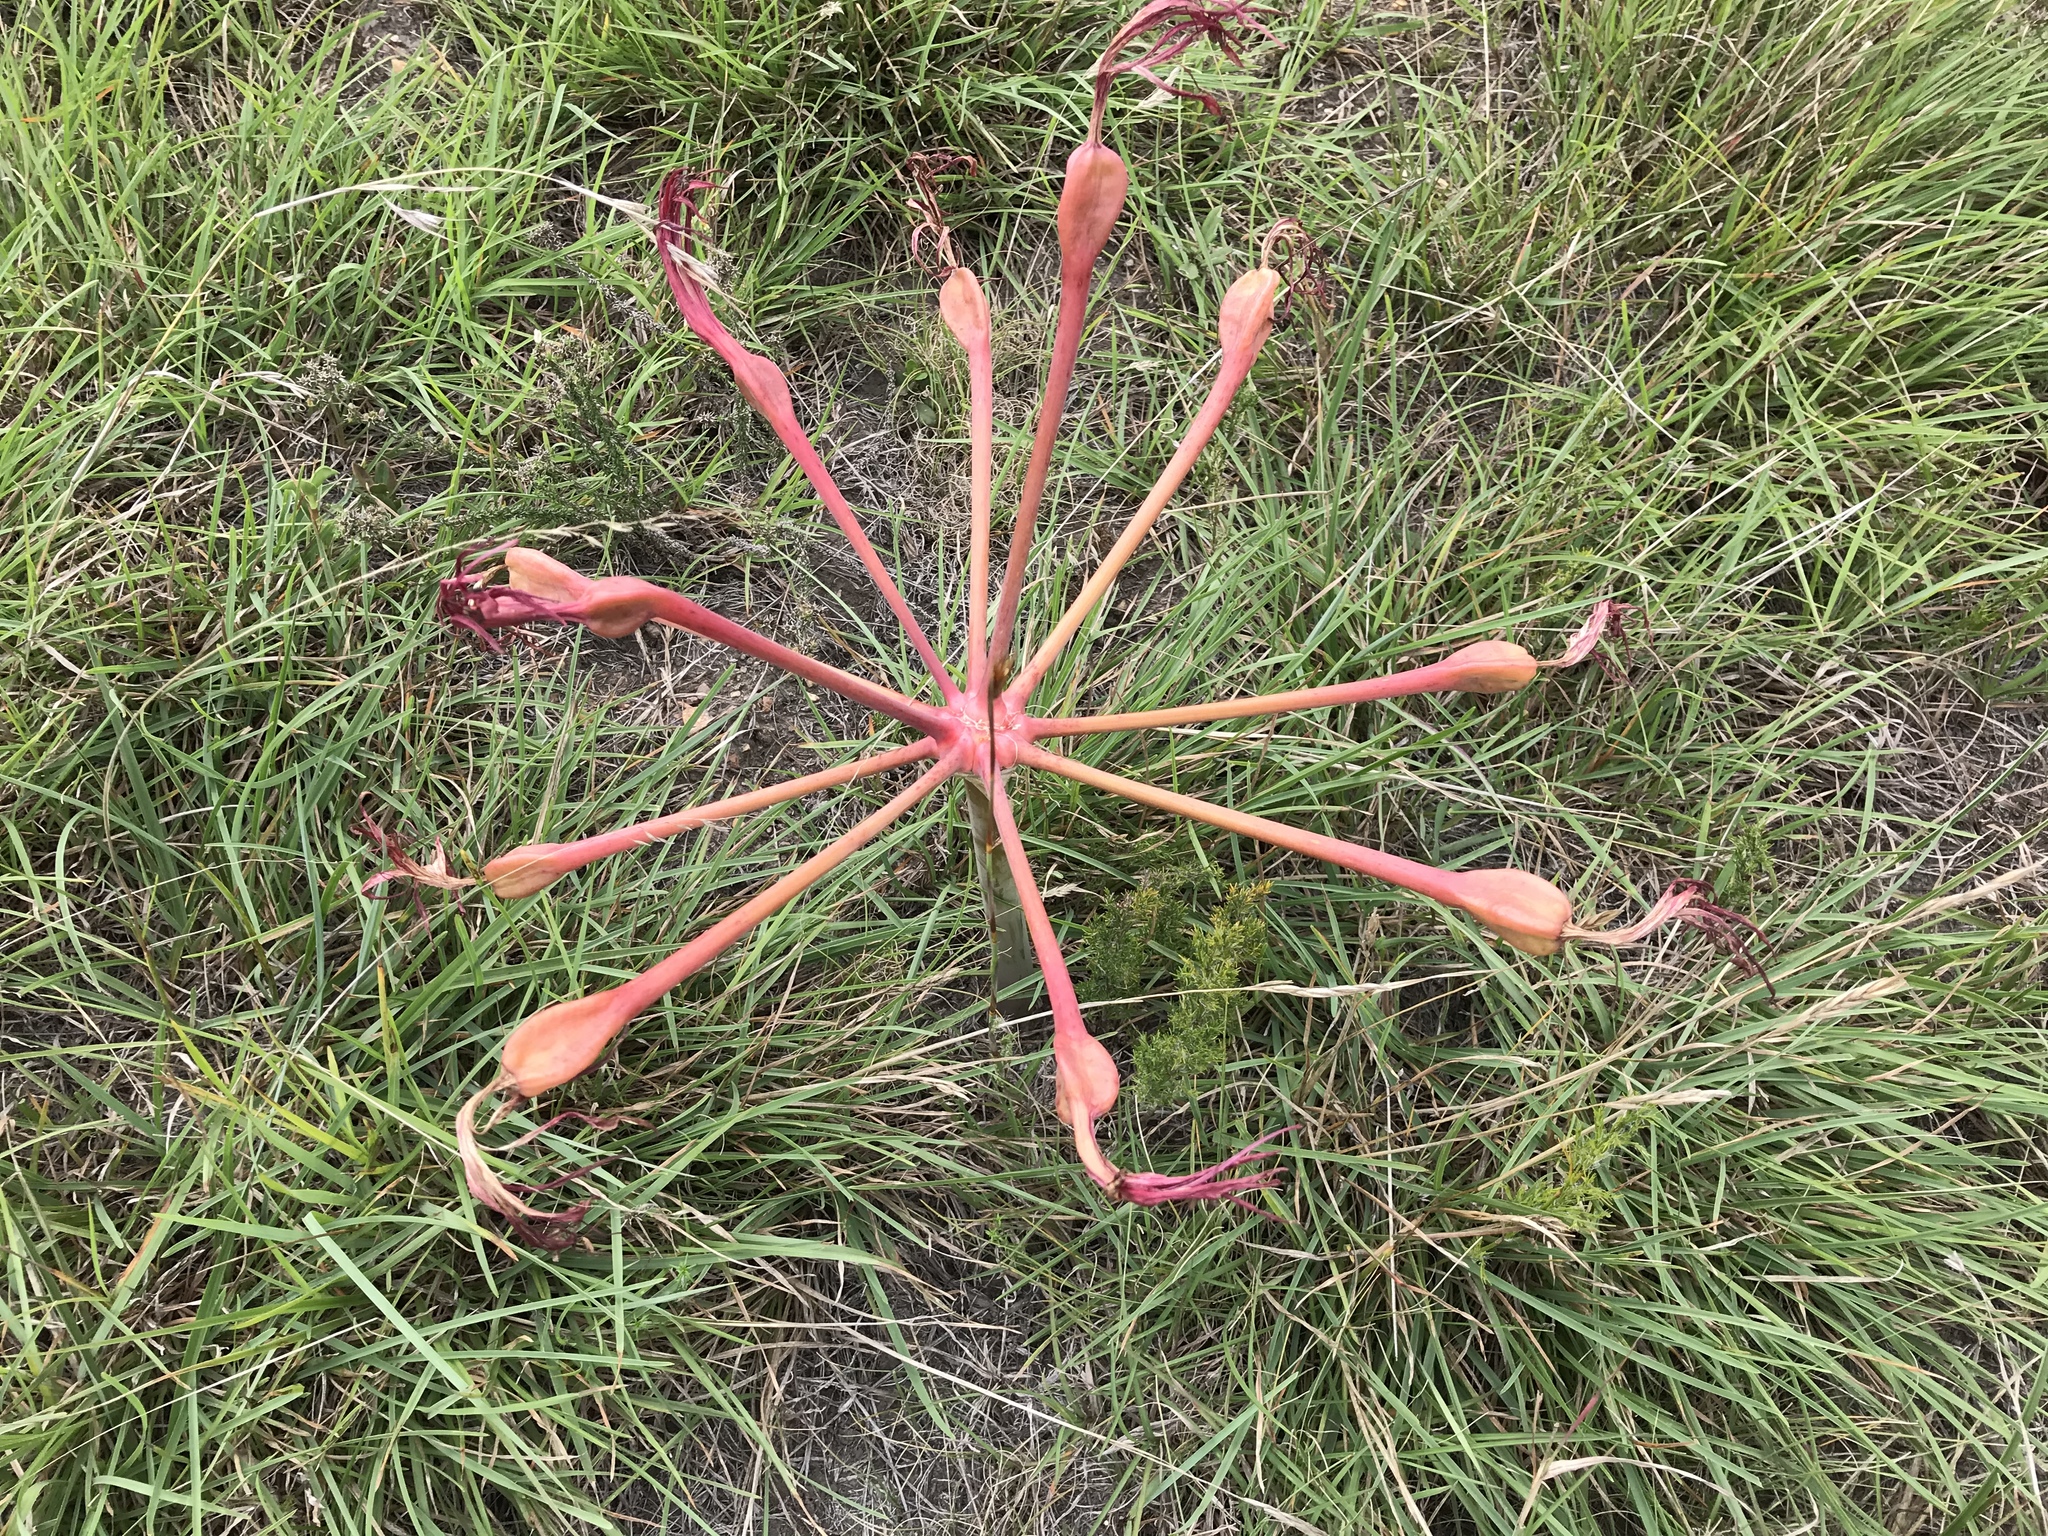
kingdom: Plantae
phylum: Tracheophyta
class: Liliopsida
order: Asparagales
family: Amaryllidaceae
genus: Brunsvigia
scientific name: Brunsvigia litoralis
